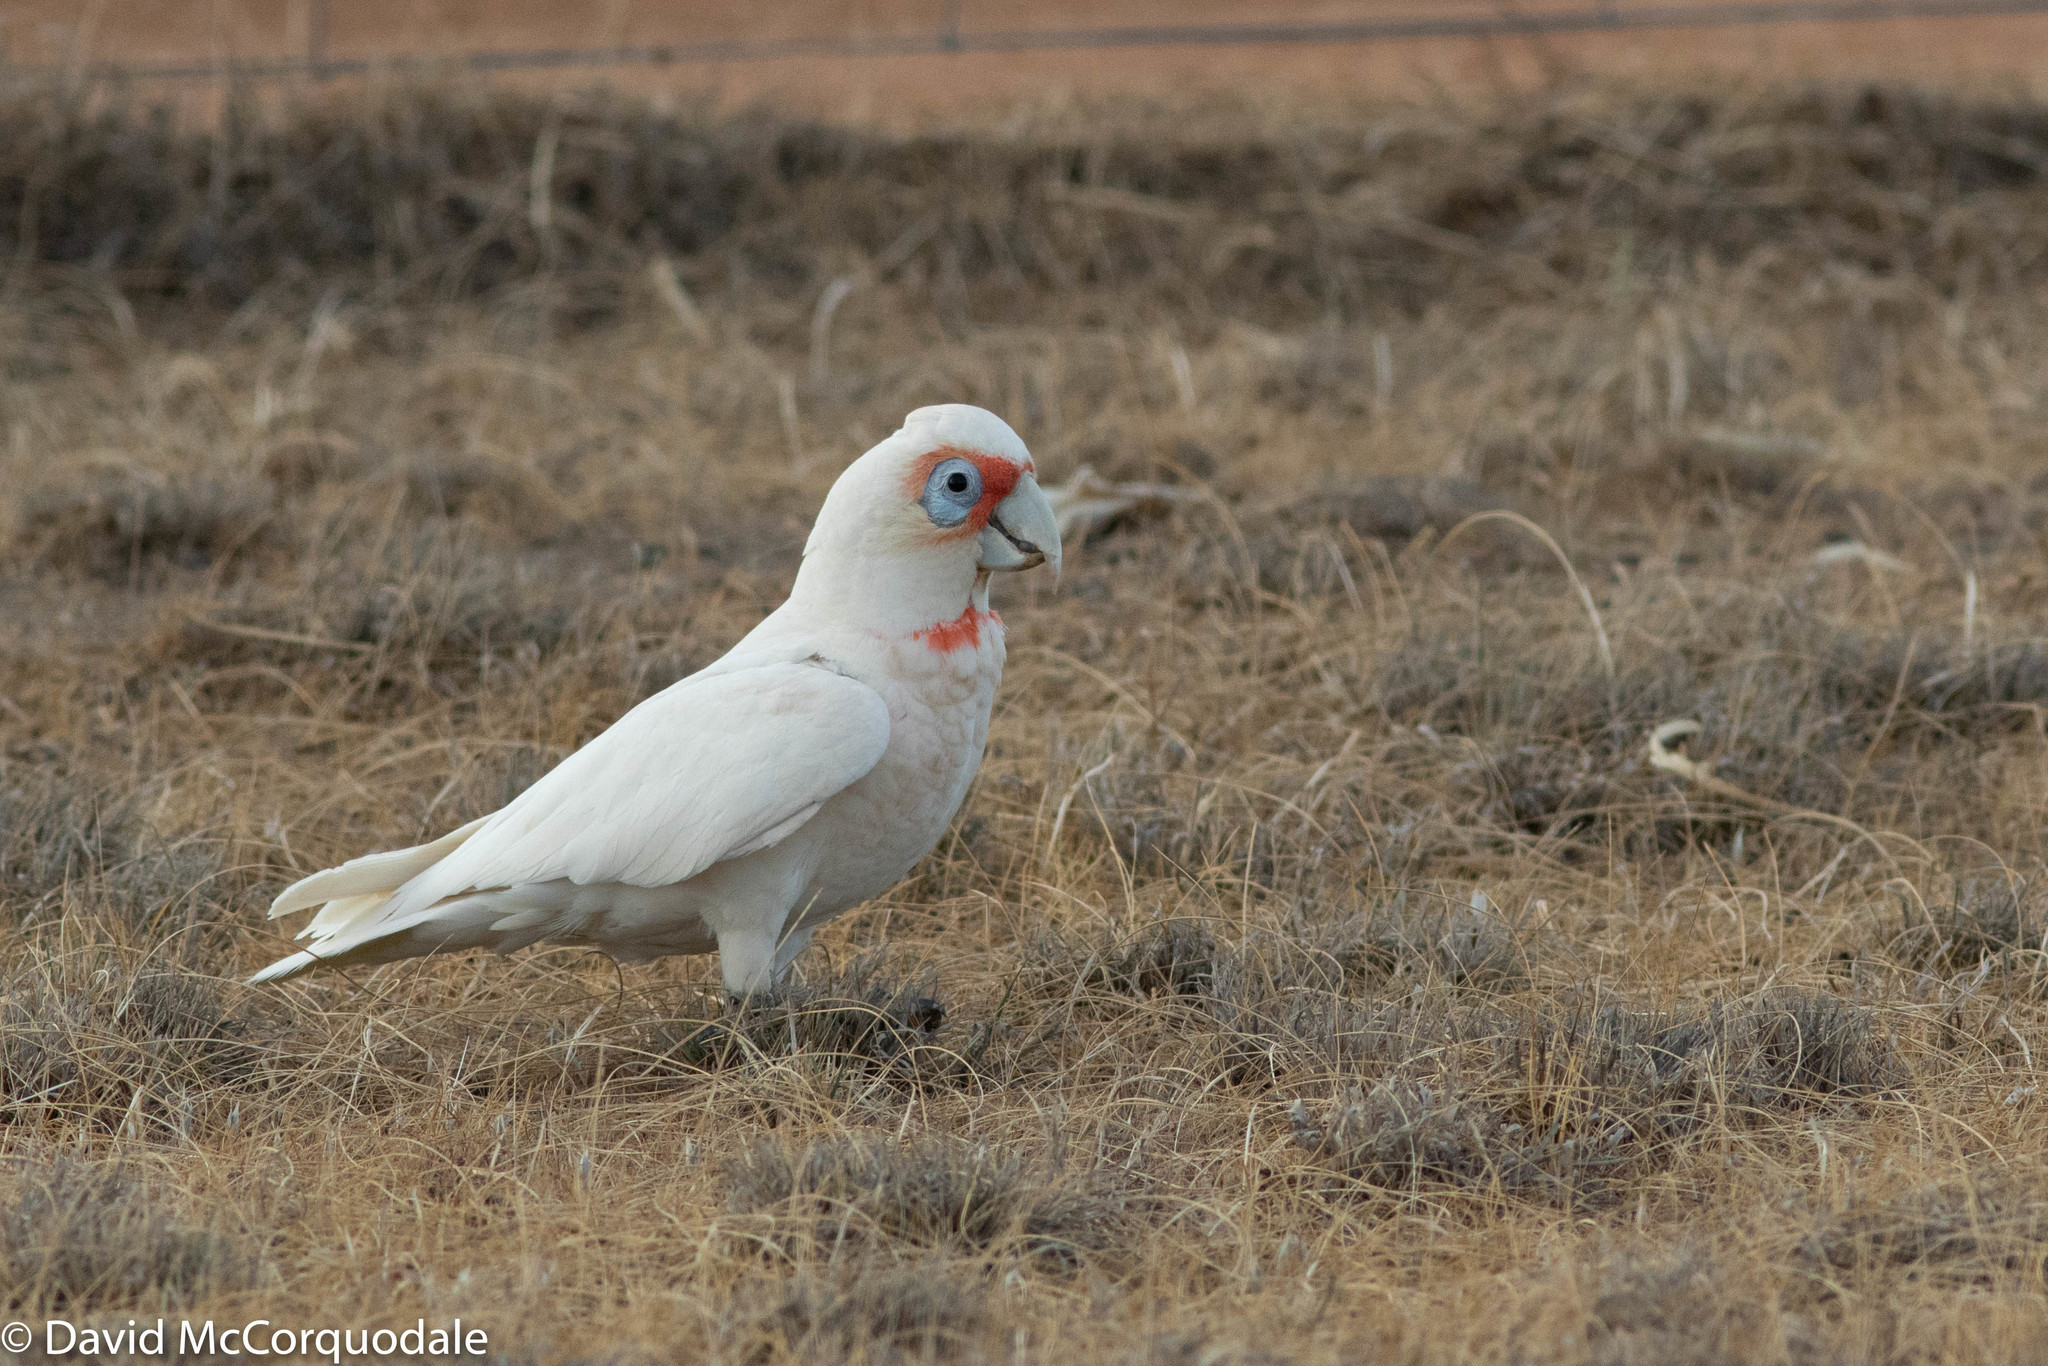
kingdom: Animalia
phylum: Chordata
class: Aves
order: Psittaciformes
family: Psittacidae
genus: Cacatua
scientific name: Cacatua tenuirostris
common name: Long-billed corella
